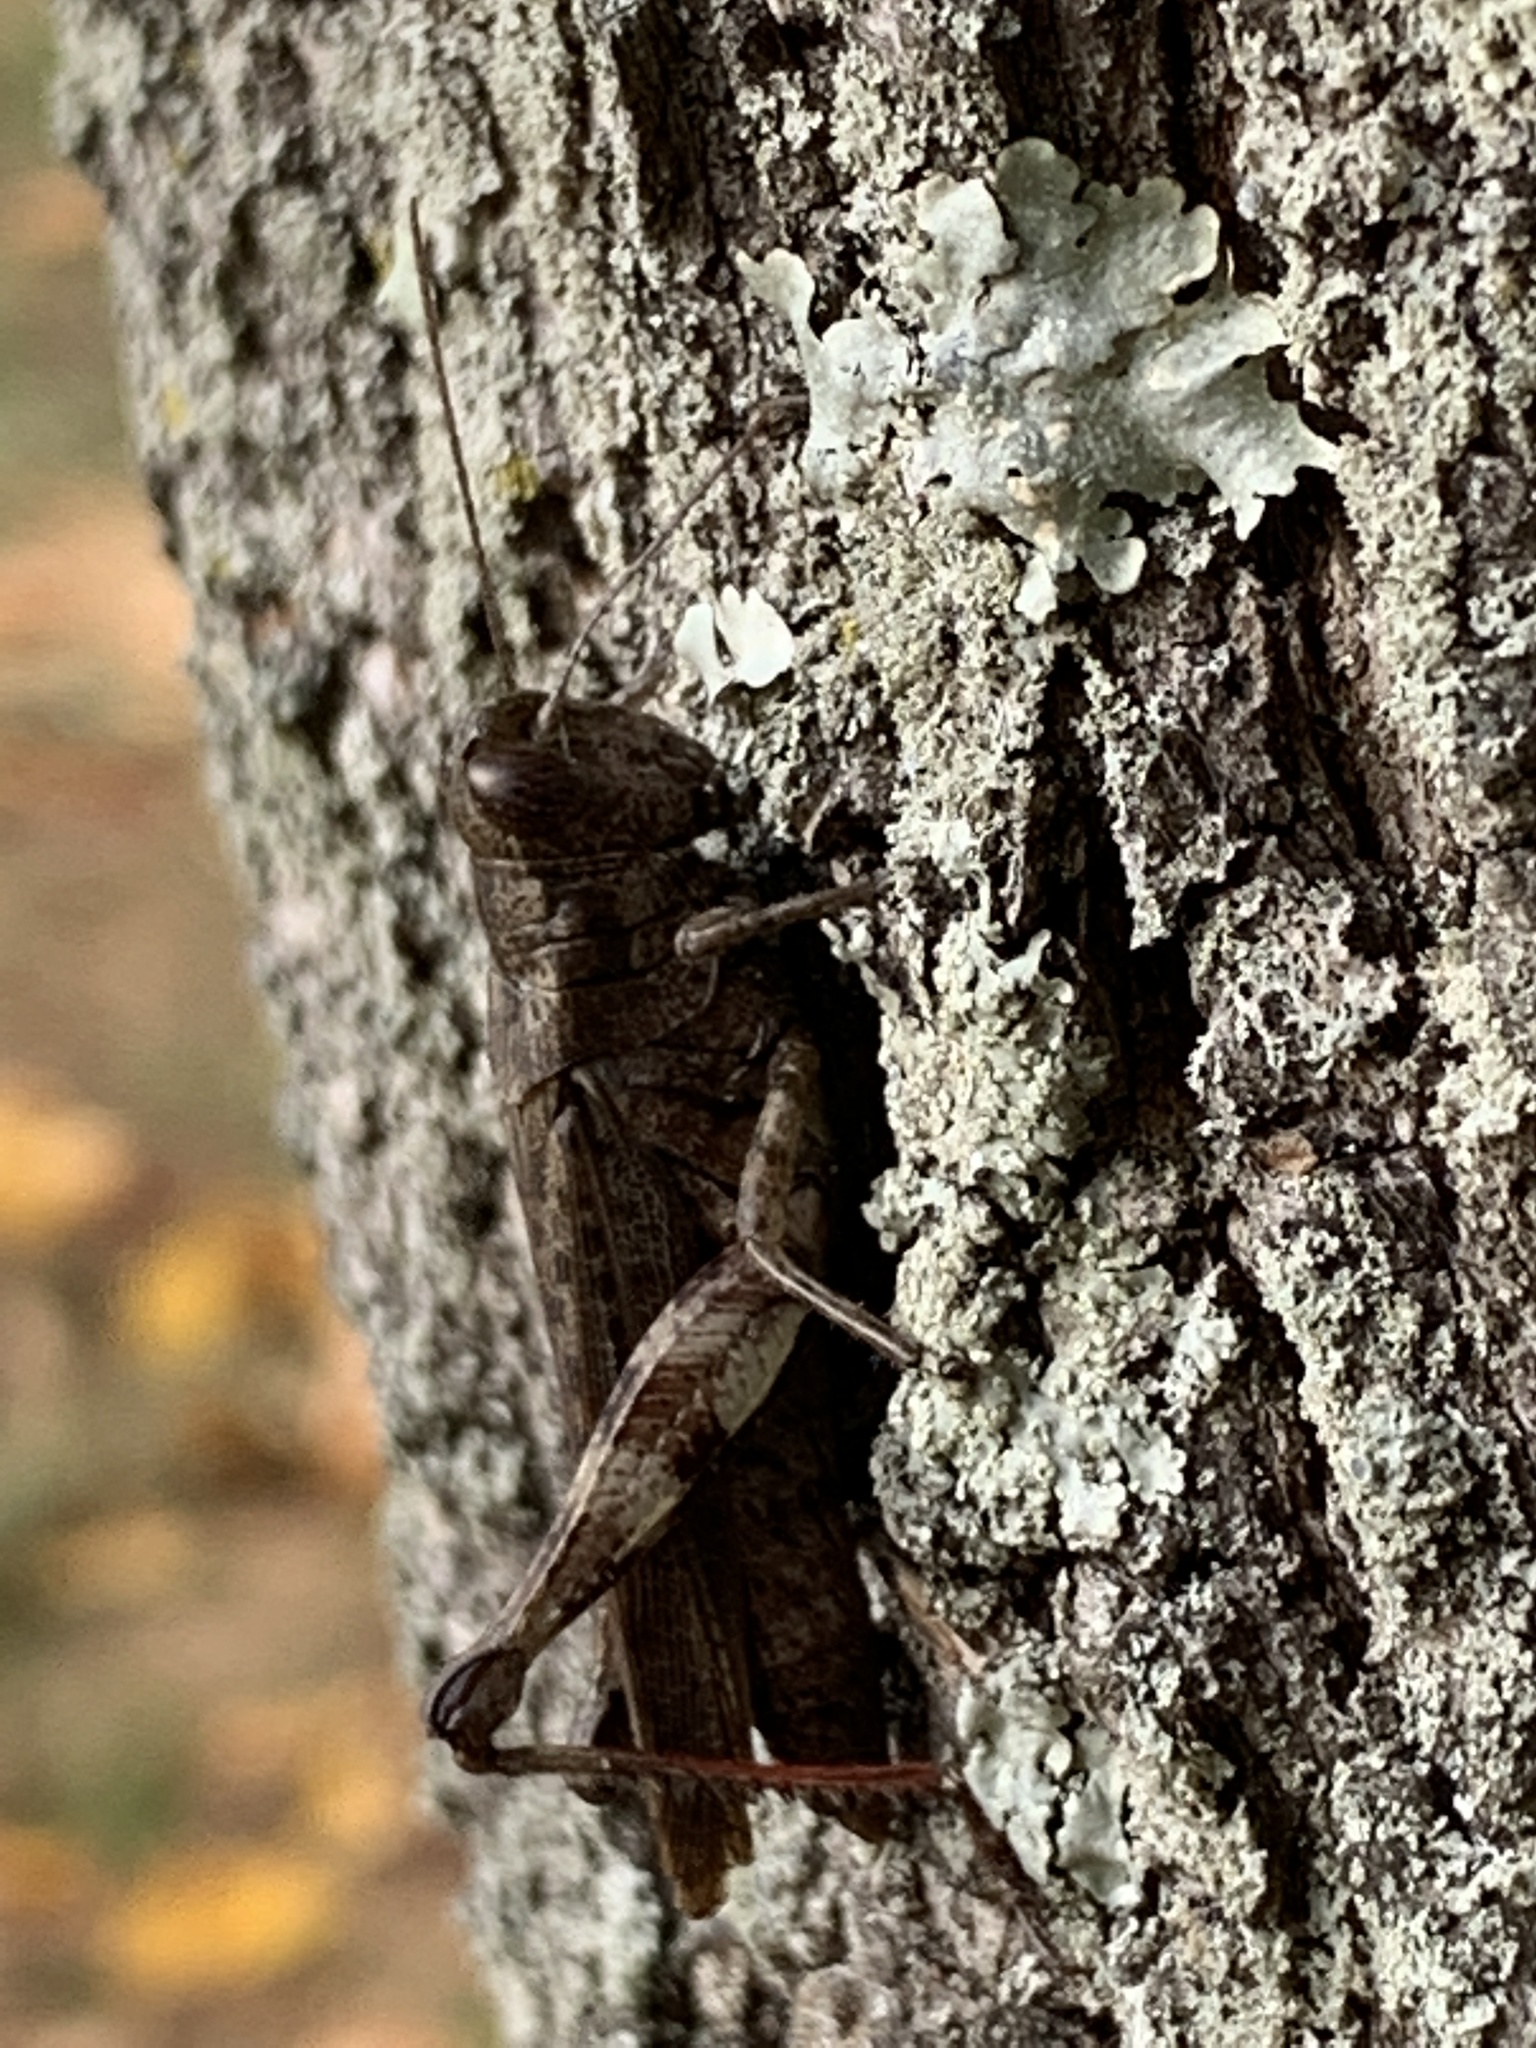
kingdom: Animalia
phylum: Arthropoda
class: Insecta
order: Orthoptera
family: Acrididae
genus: Melanoplus
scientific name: Melanoplus punctulatus
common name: Pine-tree spur-throat grasshopper
